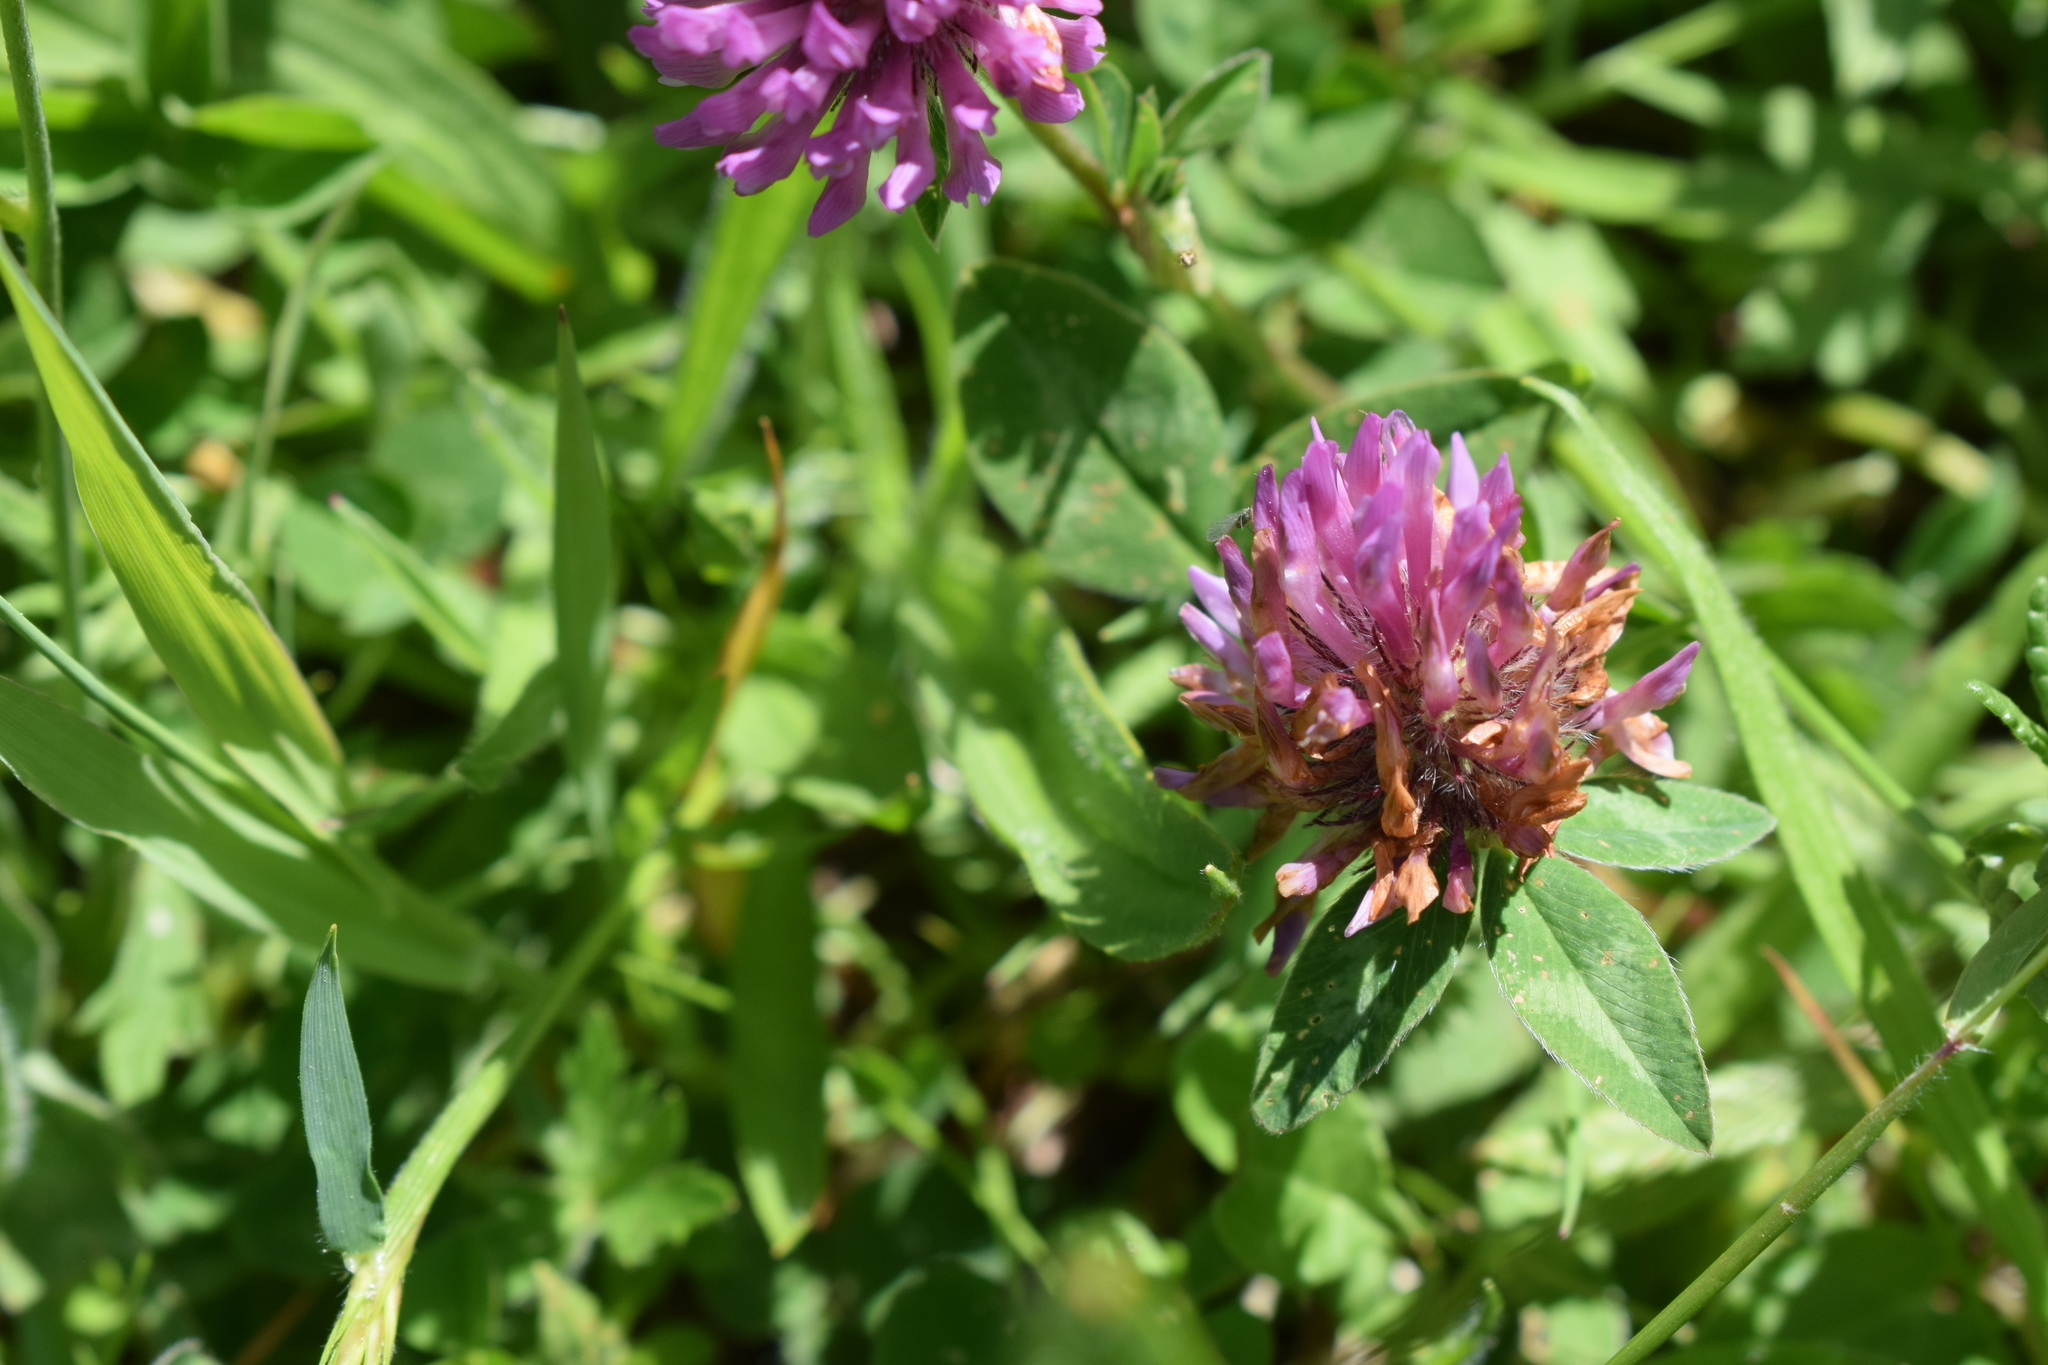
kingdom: Plantae
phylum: Tracheophyta
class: Magnoliopsida
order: Fabales
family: Fabaceae
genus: Trifolium
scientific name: Trifolium pratense
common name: Red clover
